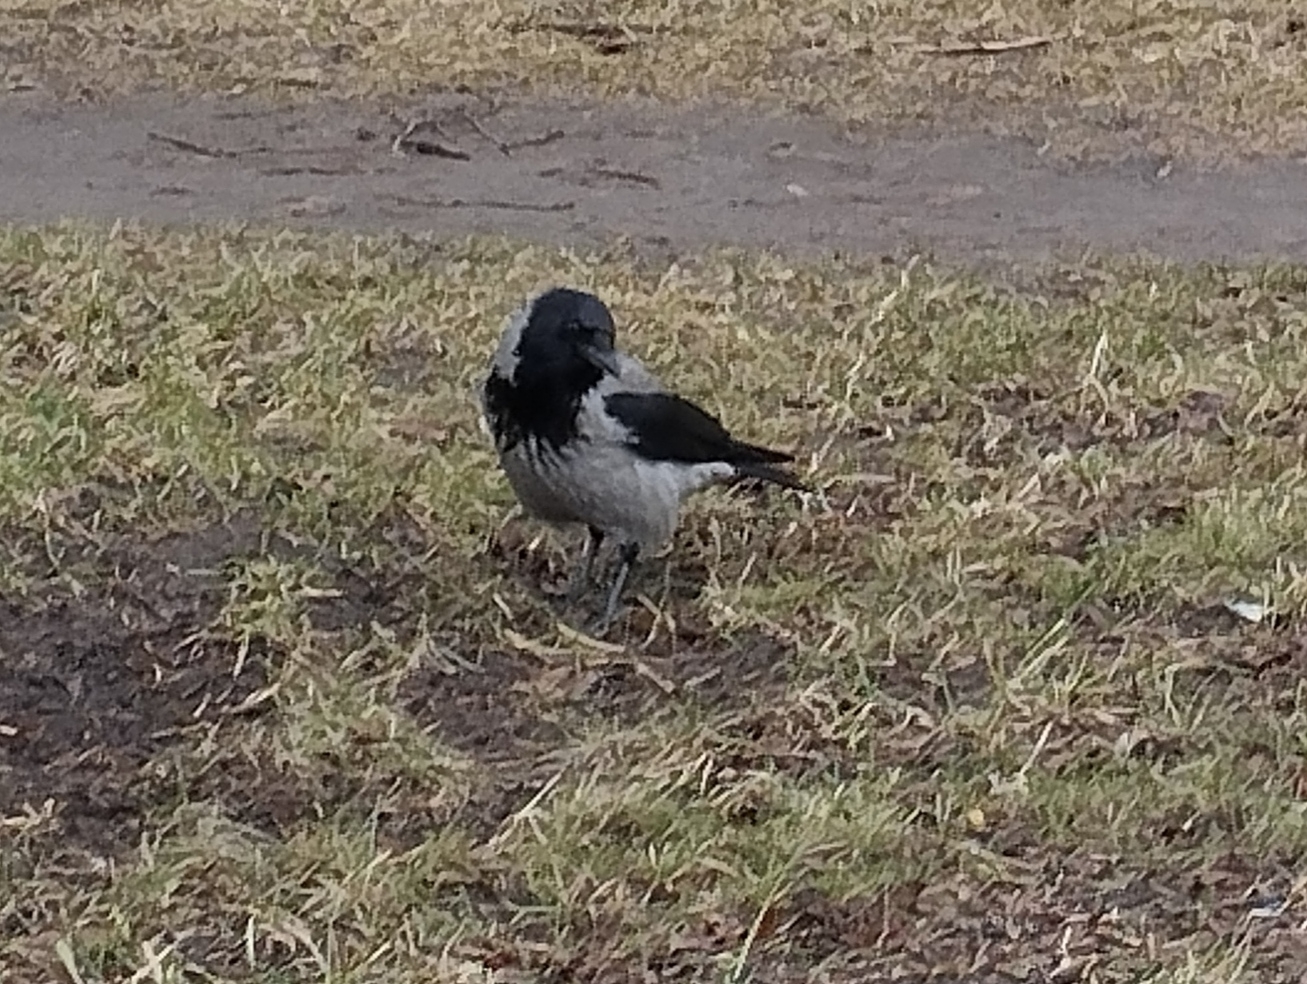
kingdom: Animalia
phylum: Chordata
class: Aves
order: Passeriformes
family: Corvidae
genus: Corvus
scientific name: Corvus cornix
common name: Hooded crow
